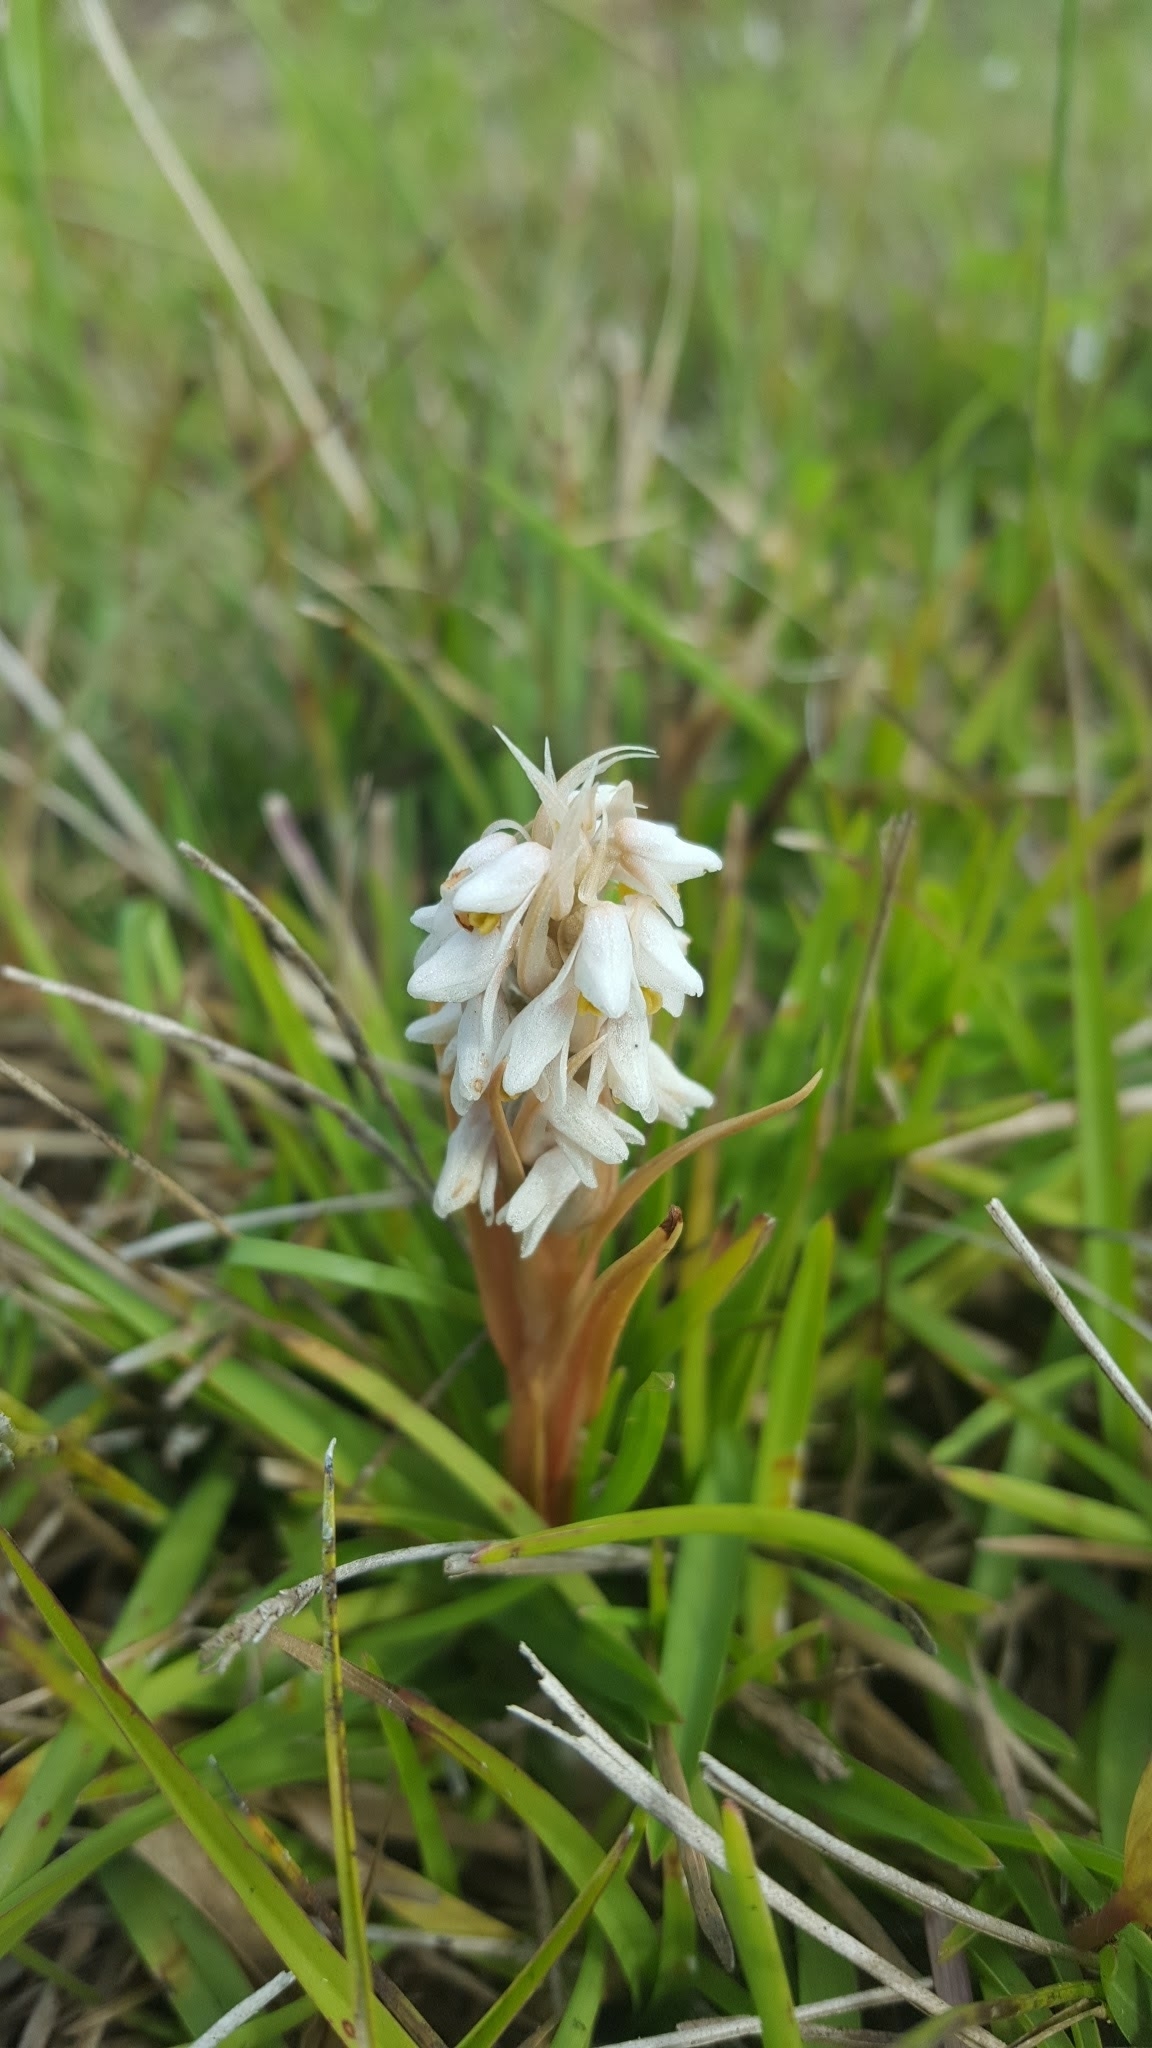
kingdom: Plantae
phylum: Tracheophyta
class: Liliopsida
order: Asparagales
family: Orchidaceae
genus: Zeuxine
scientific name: Zeuxine strateumatica
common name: Soldier's orchid
